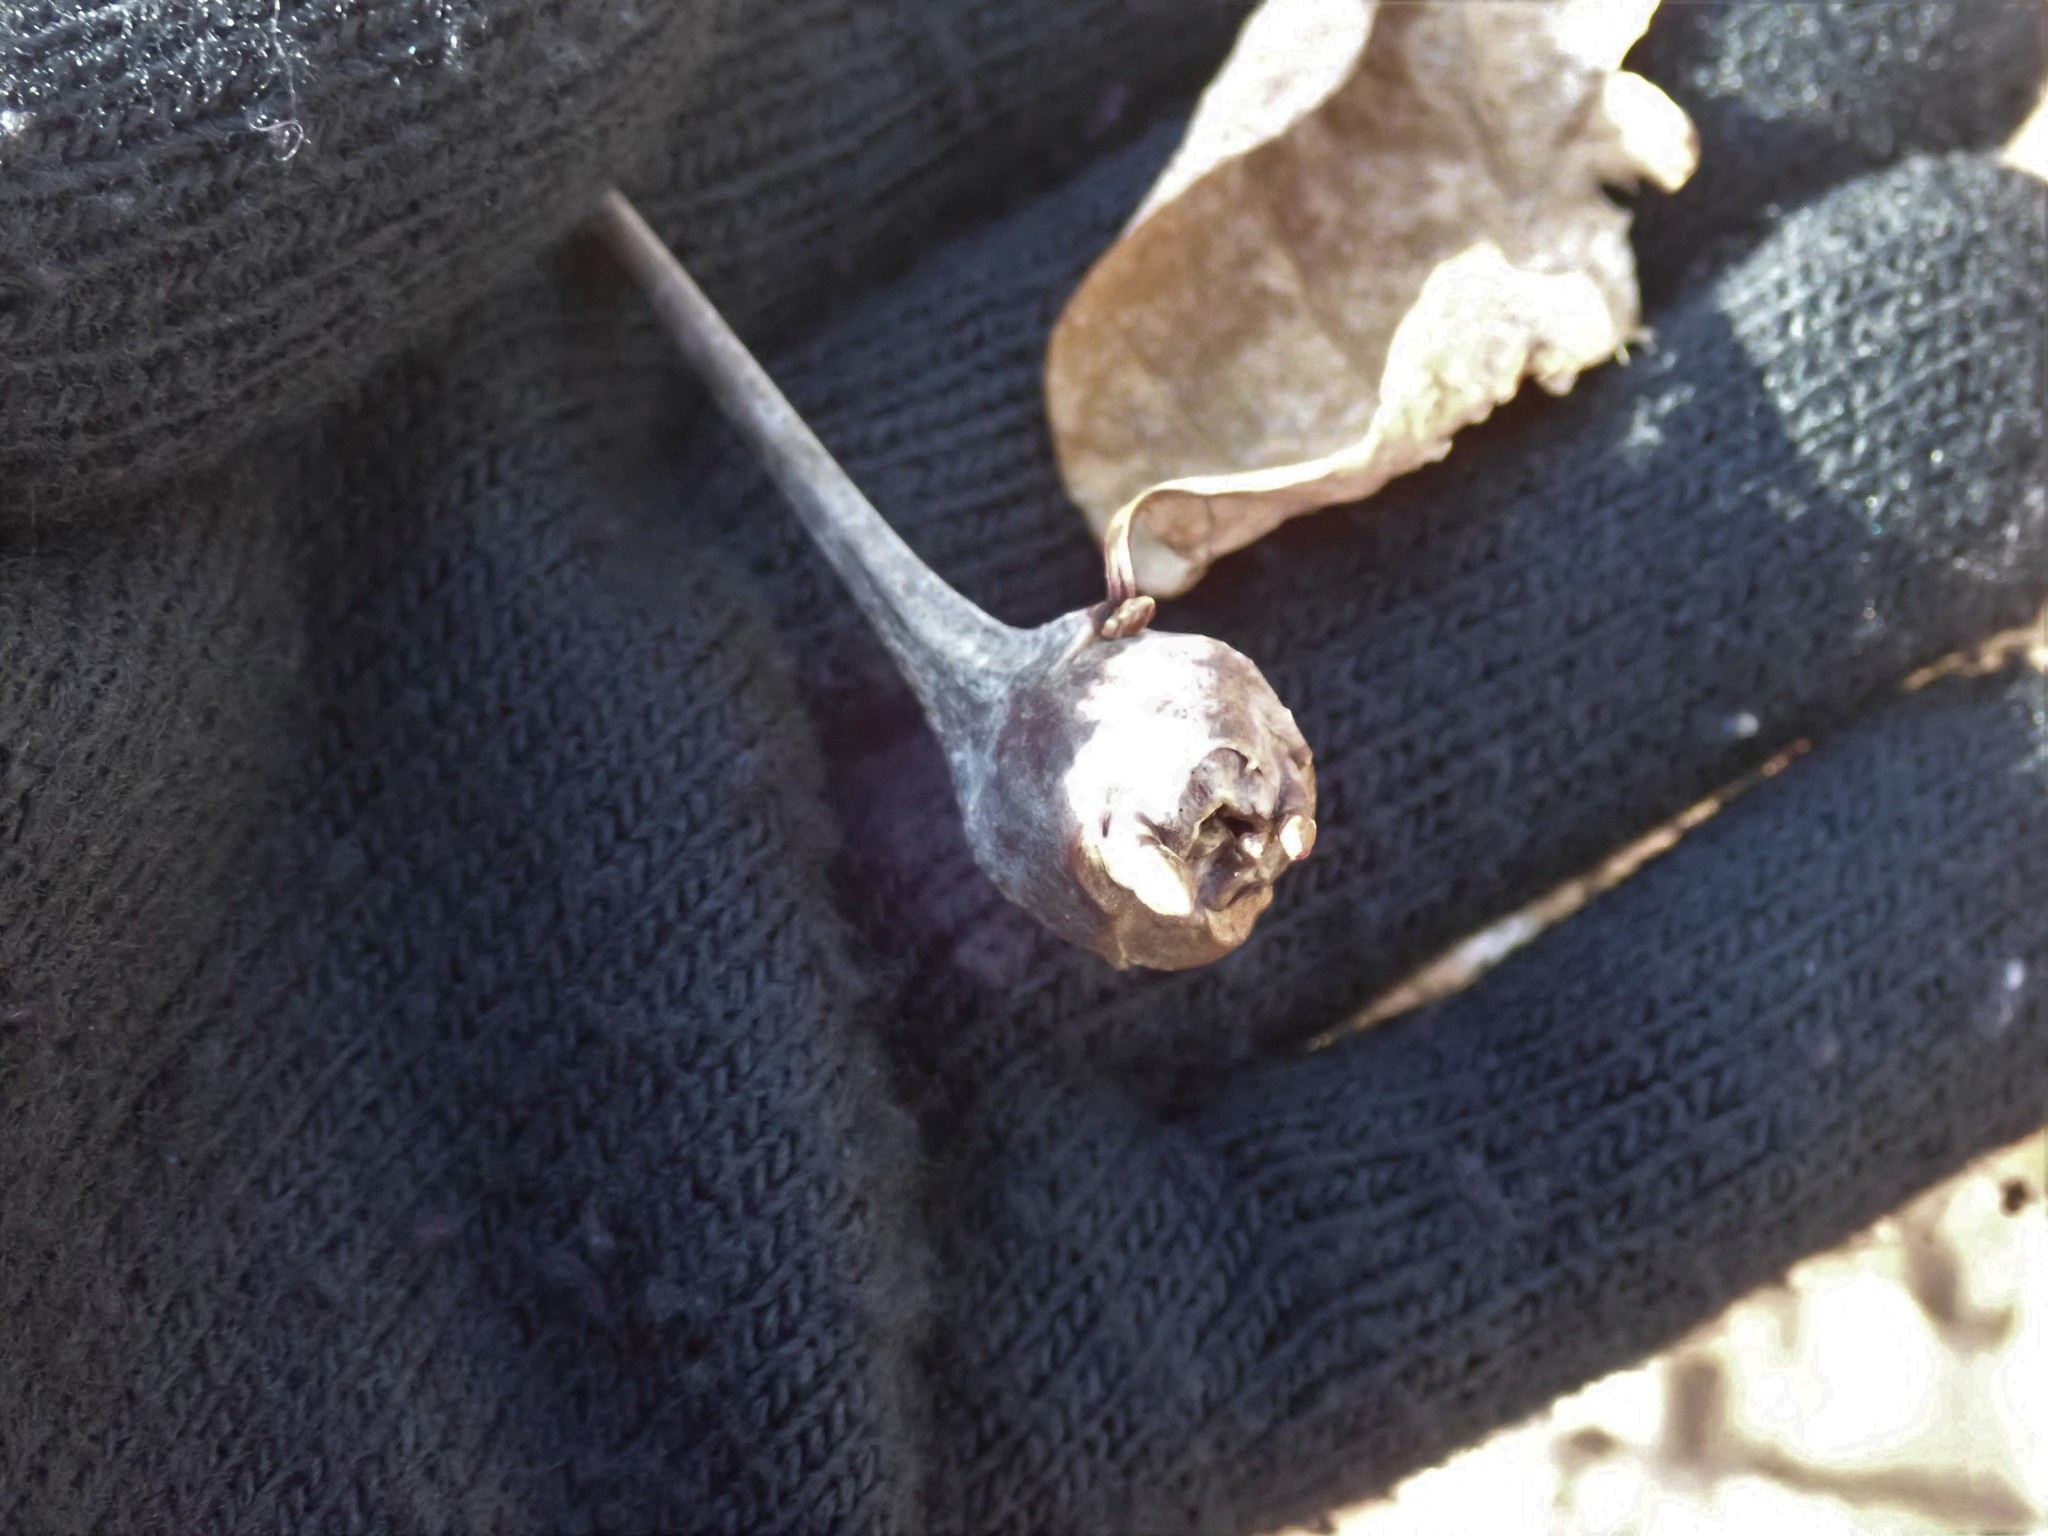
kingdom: Animalia
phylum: Arthropoda
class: Insecta
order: Hymenoptera
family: Cynipidae
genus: Callirhytis
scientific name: Callirhytis clavula
